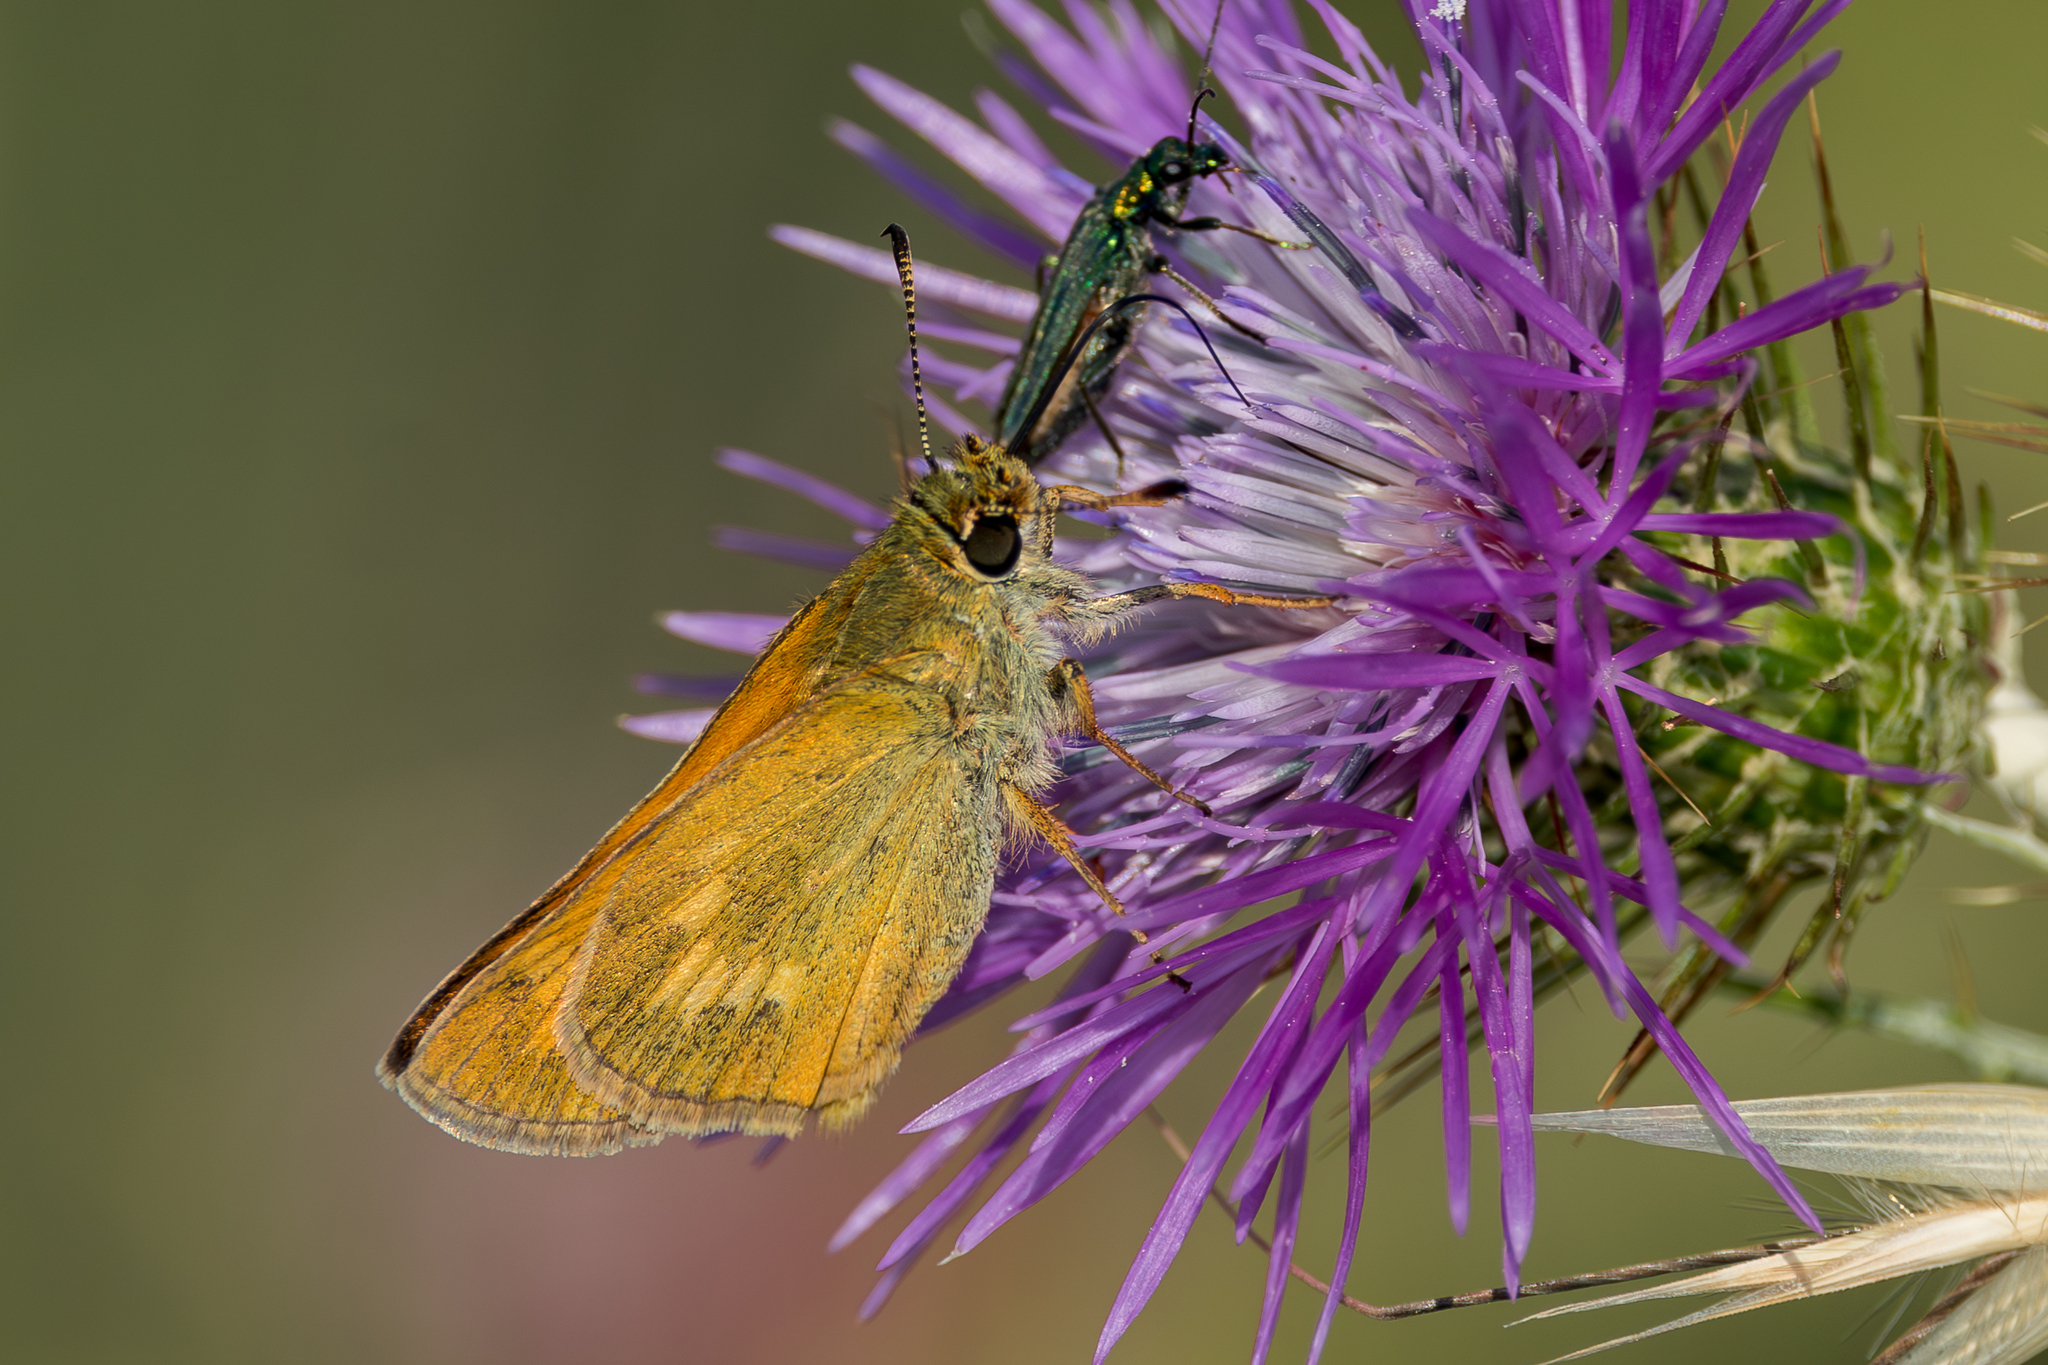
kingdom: Animalia
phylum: Arthropoda
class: Insecta
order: Lepidoptera
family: Hesperiidae
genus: Ochlodes
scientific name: Ochlodes venata
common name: Large skipper
